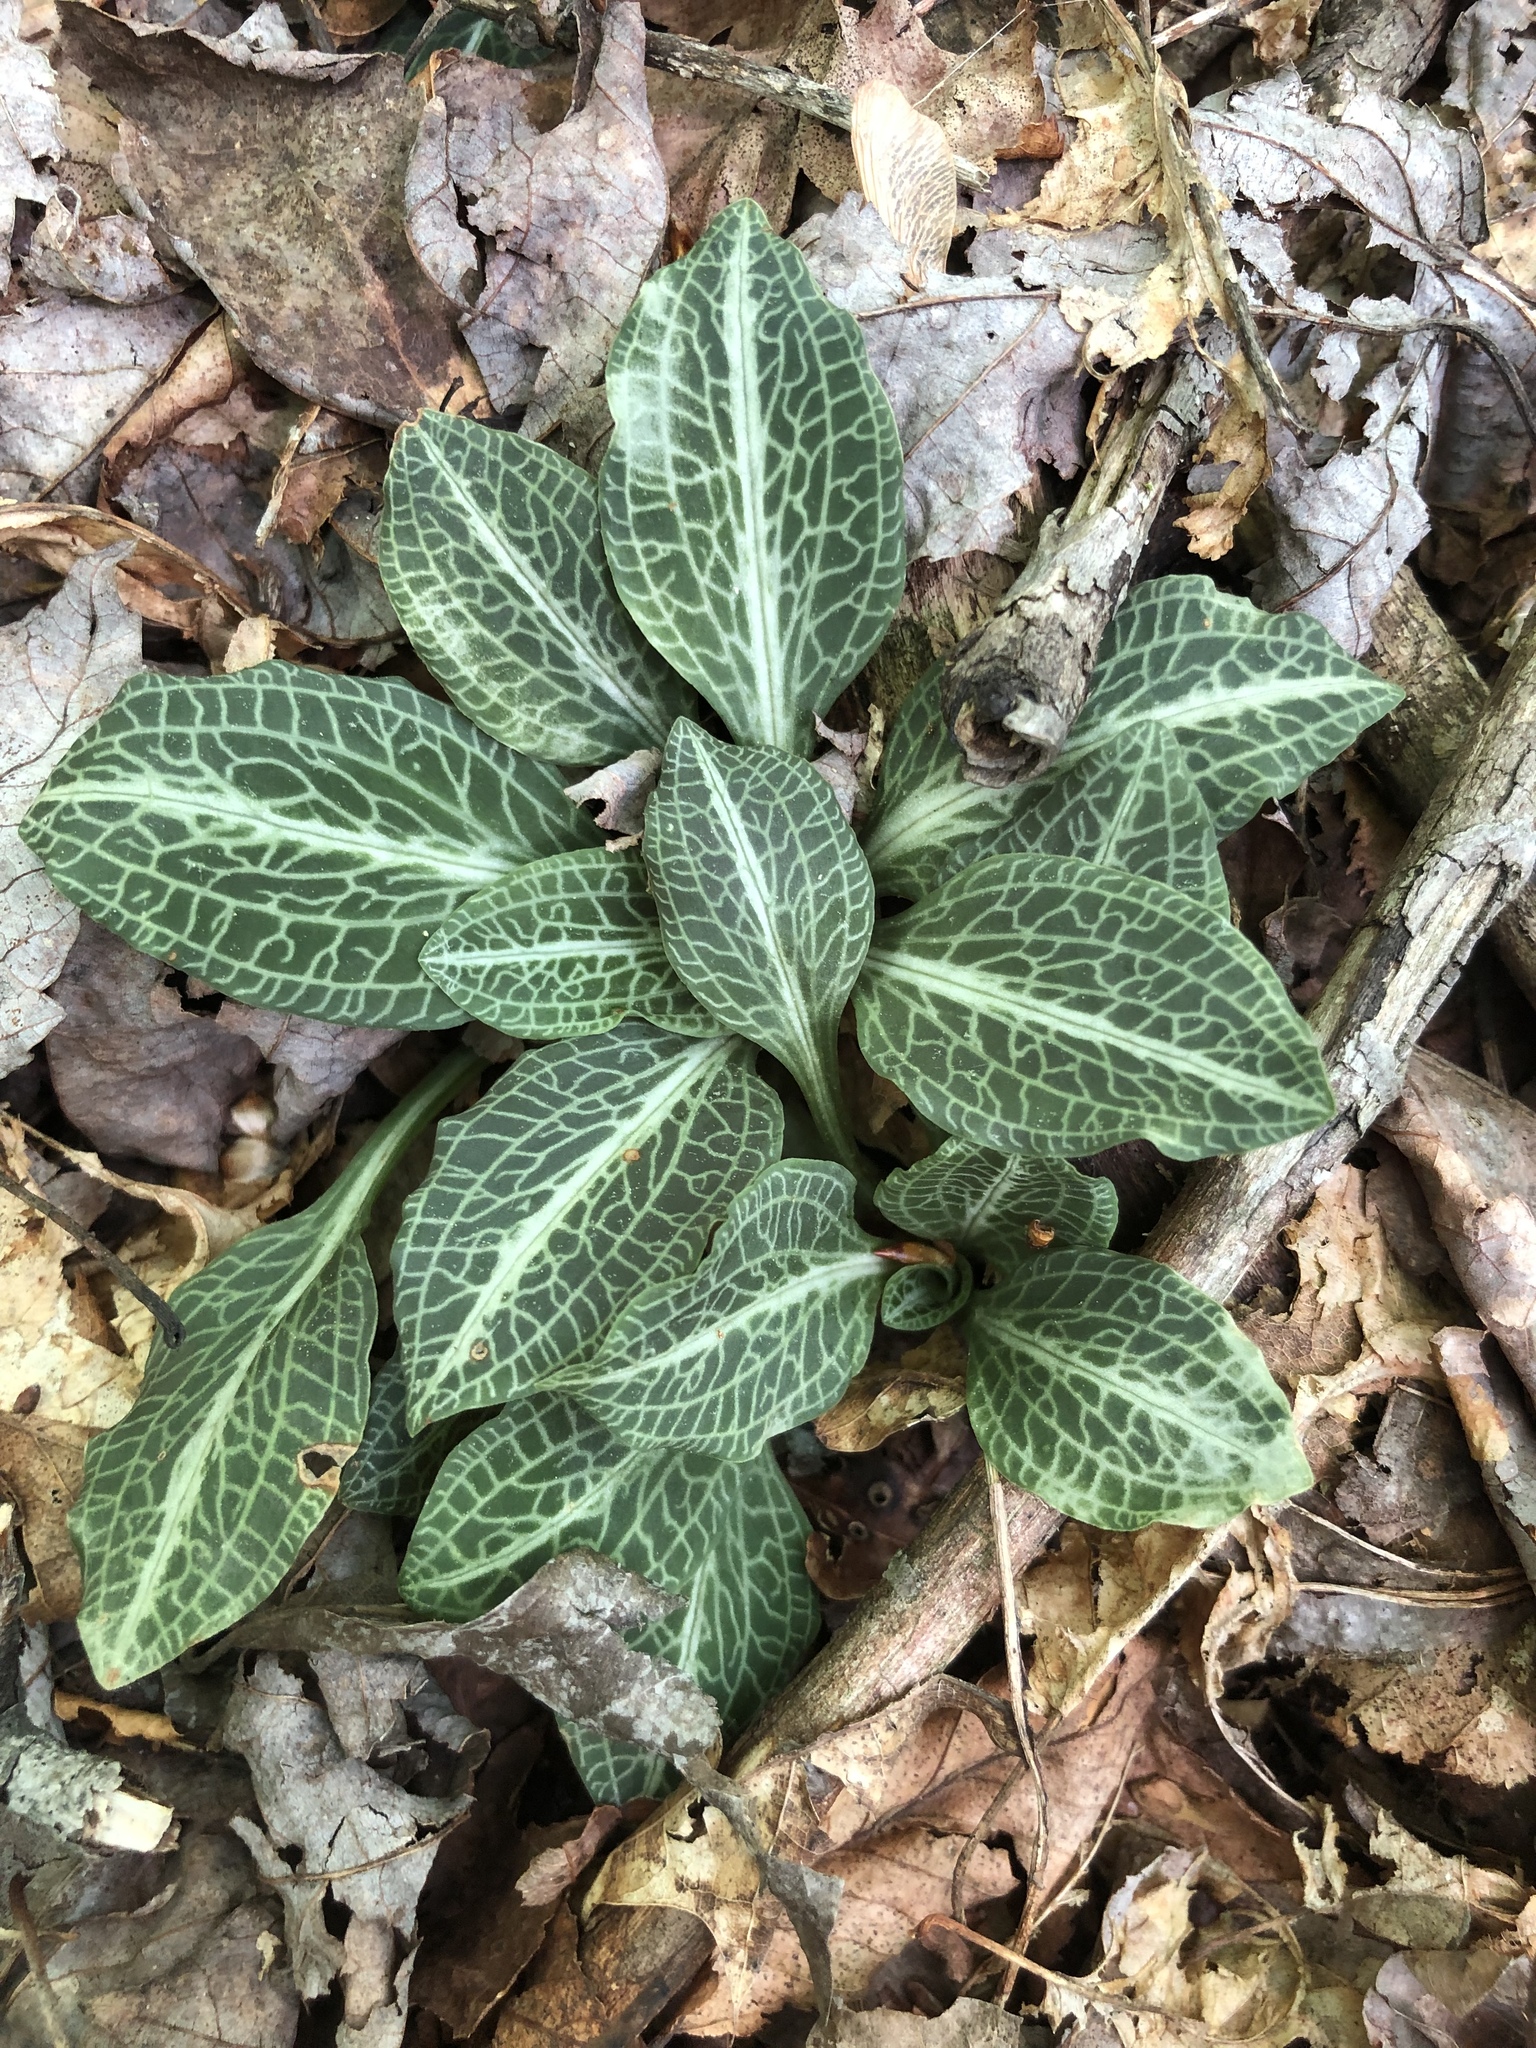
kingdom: Plantae
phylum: Tracheophyta
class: Liliopsida
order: Asparagales
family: Orchidaceae
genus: Goodyera
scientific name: Goodyera pubescens
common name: Downy rattlesnake-plantain
